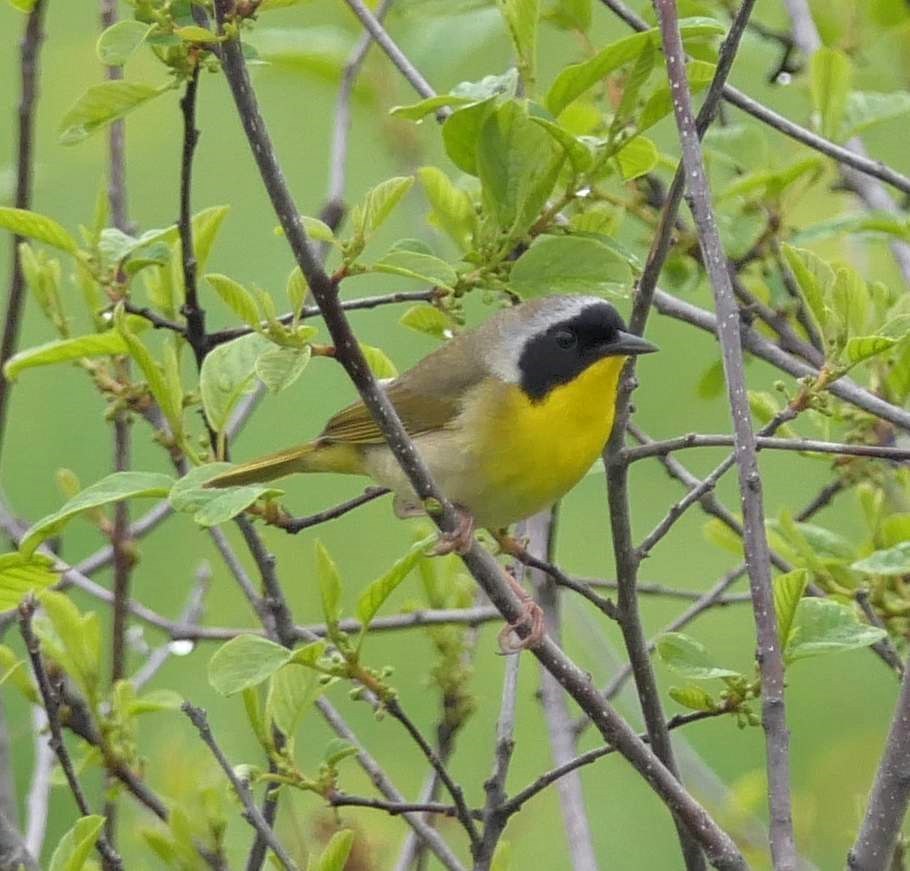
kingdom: Animalia
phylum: Chordata
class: Aves
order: Passeriformes
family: Parulidae
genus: Geothlypis
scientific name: Geothlypis trichas
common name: Common yellowthroat
